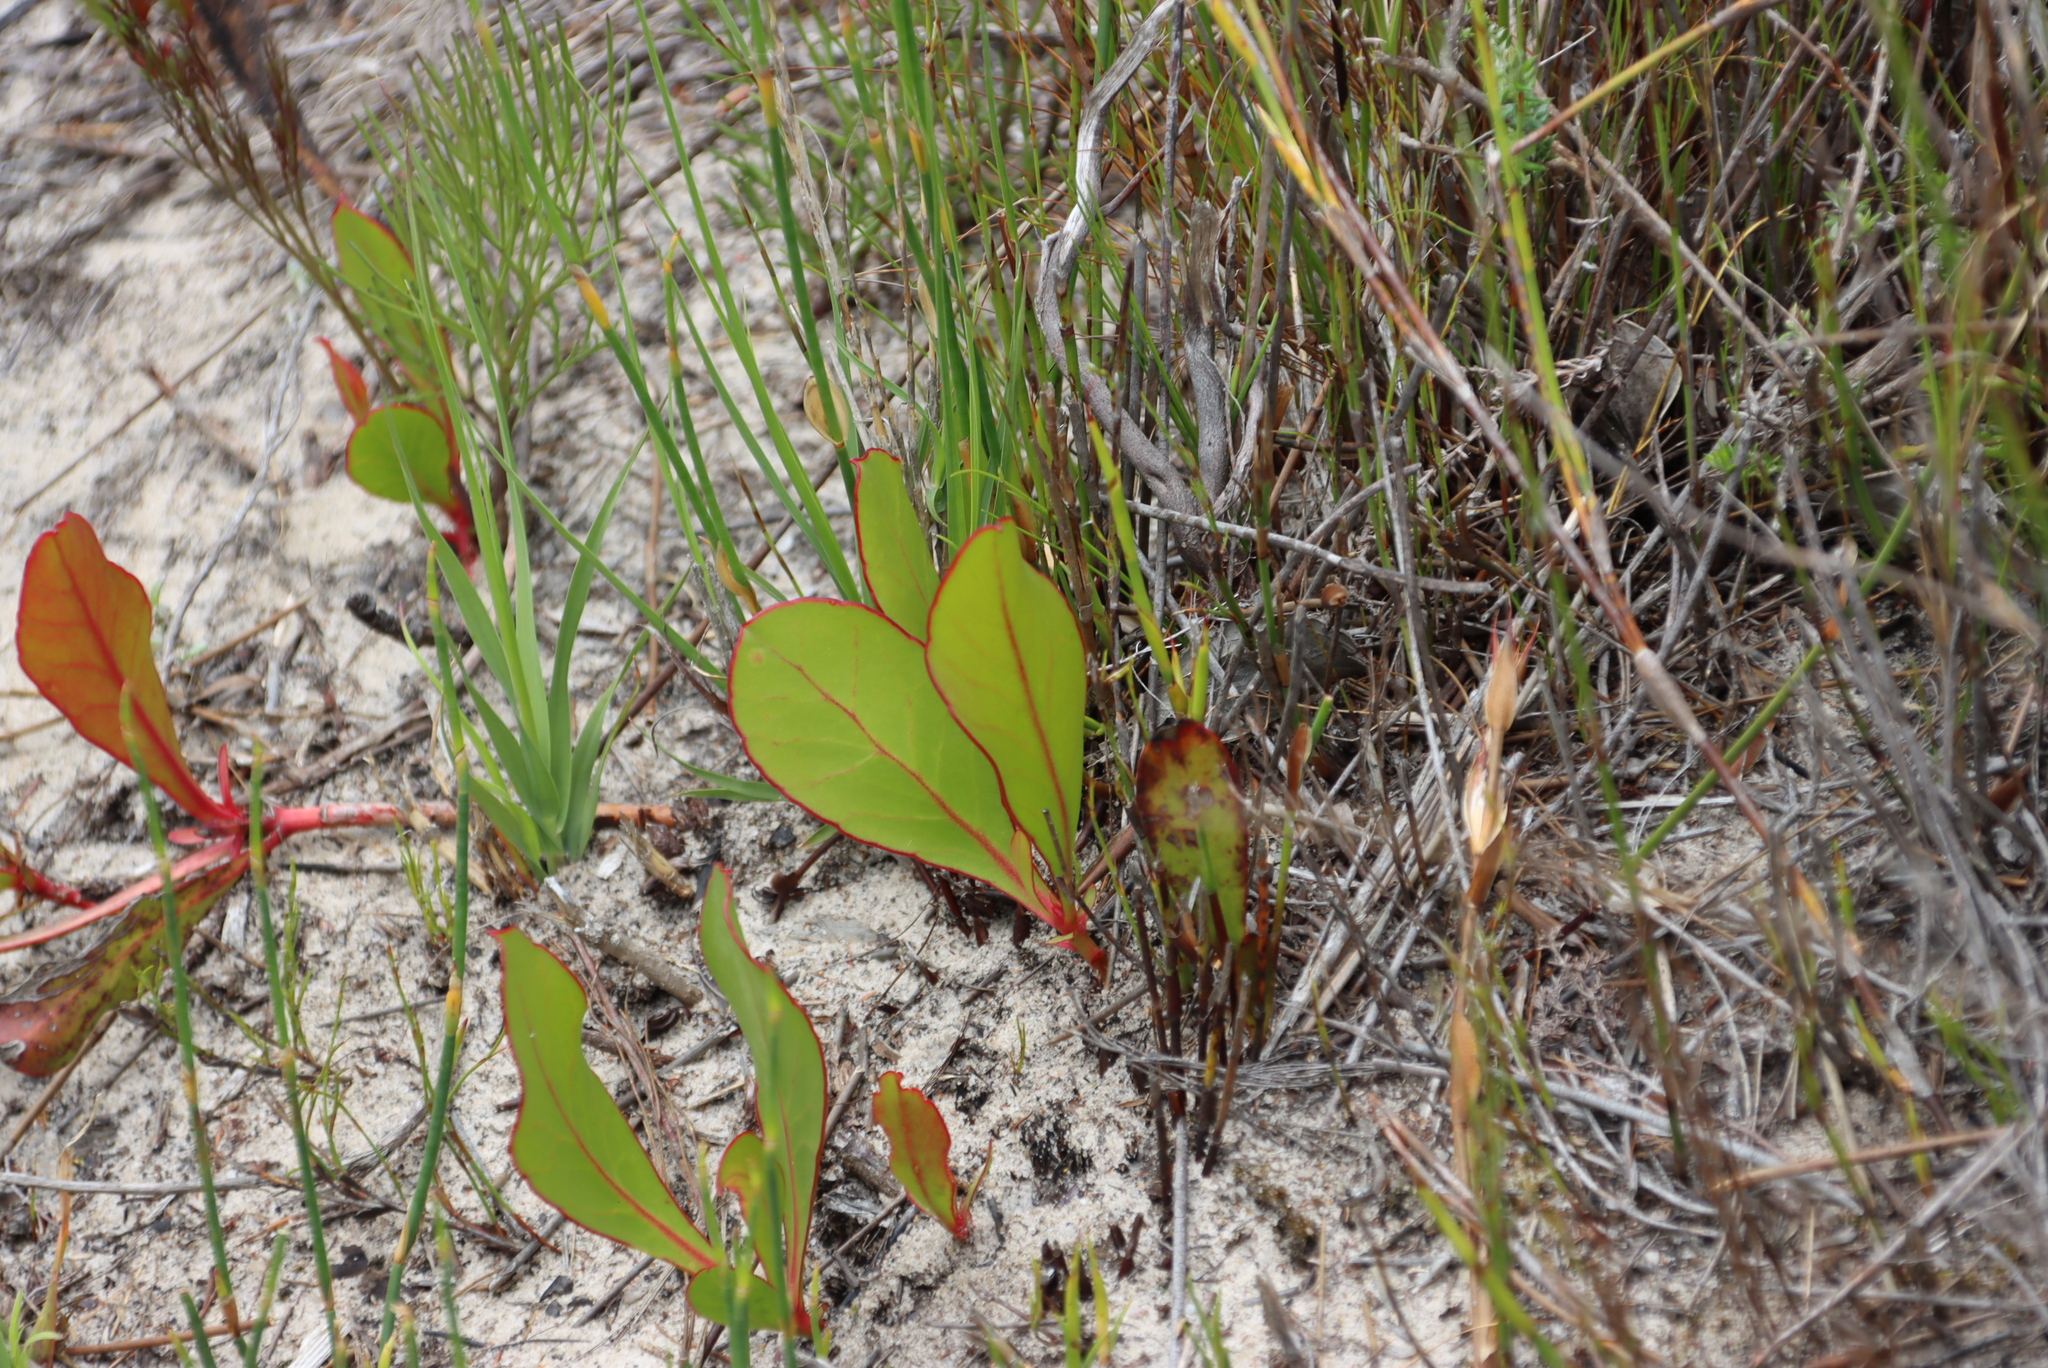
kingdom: Plantae
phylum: Tracheophyta
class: Magnoliopsida
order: Proteales
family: Proteaceae
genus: Protea
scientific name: Protea acaulos
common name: Common ground sugarbush
